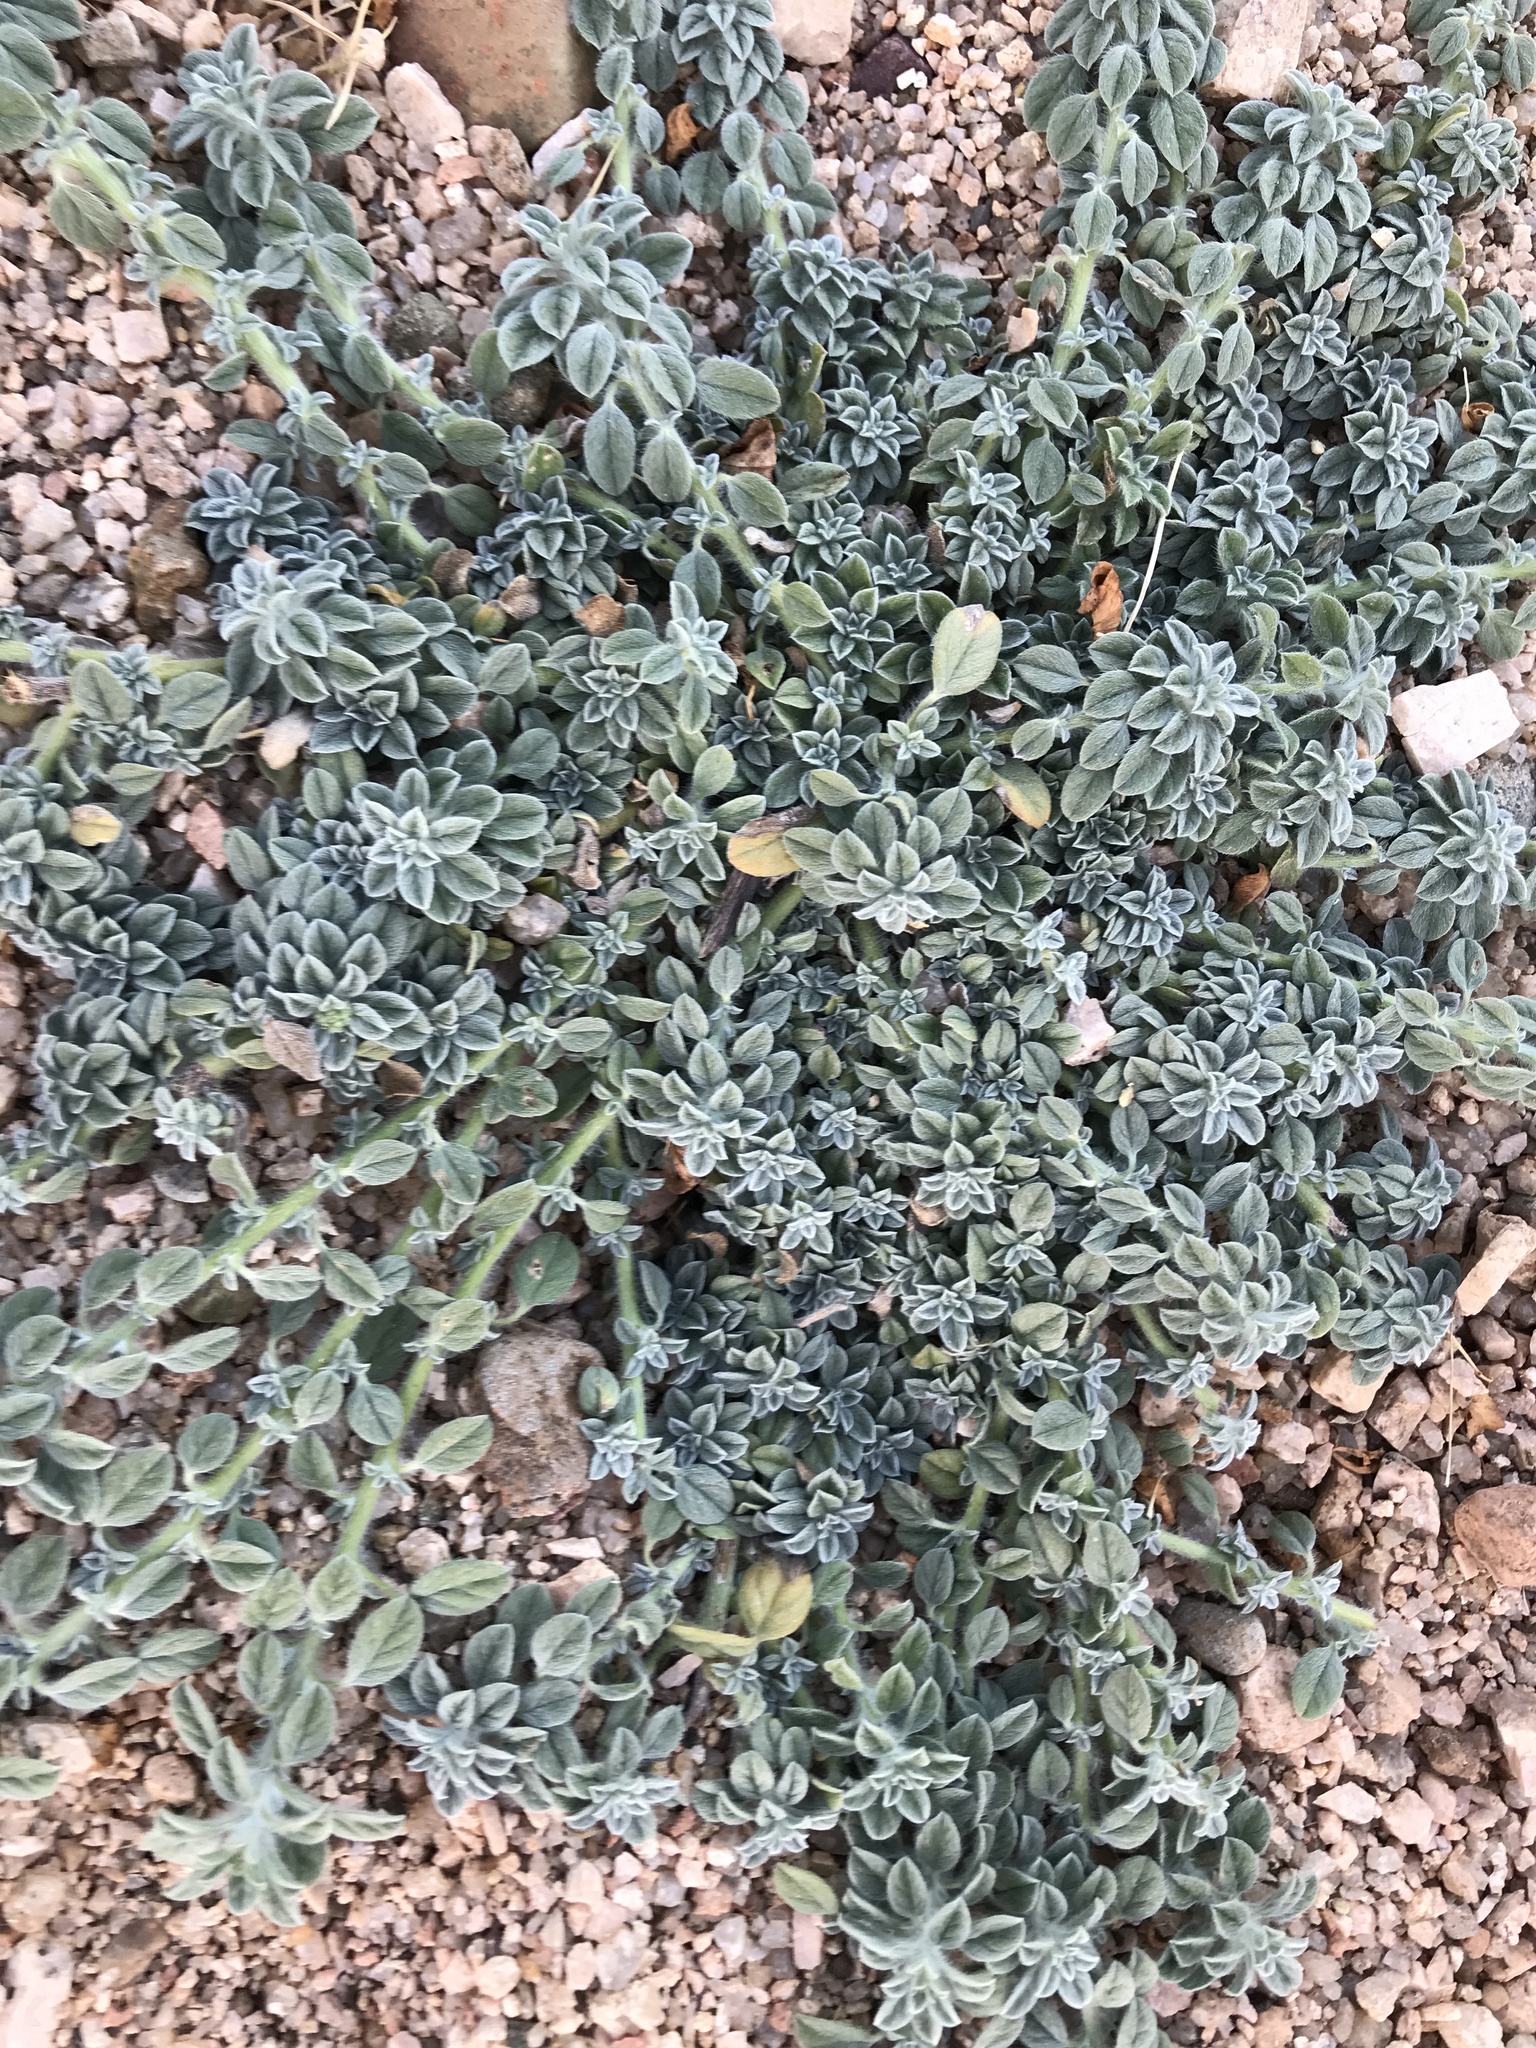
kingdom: Plantae
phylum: Tracheophyta
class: Magnoliopsida
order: Boraginales
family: Heliotropiaceae
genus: Euploca
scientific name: Euploca procumbens
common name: Fourspike heliotrope
